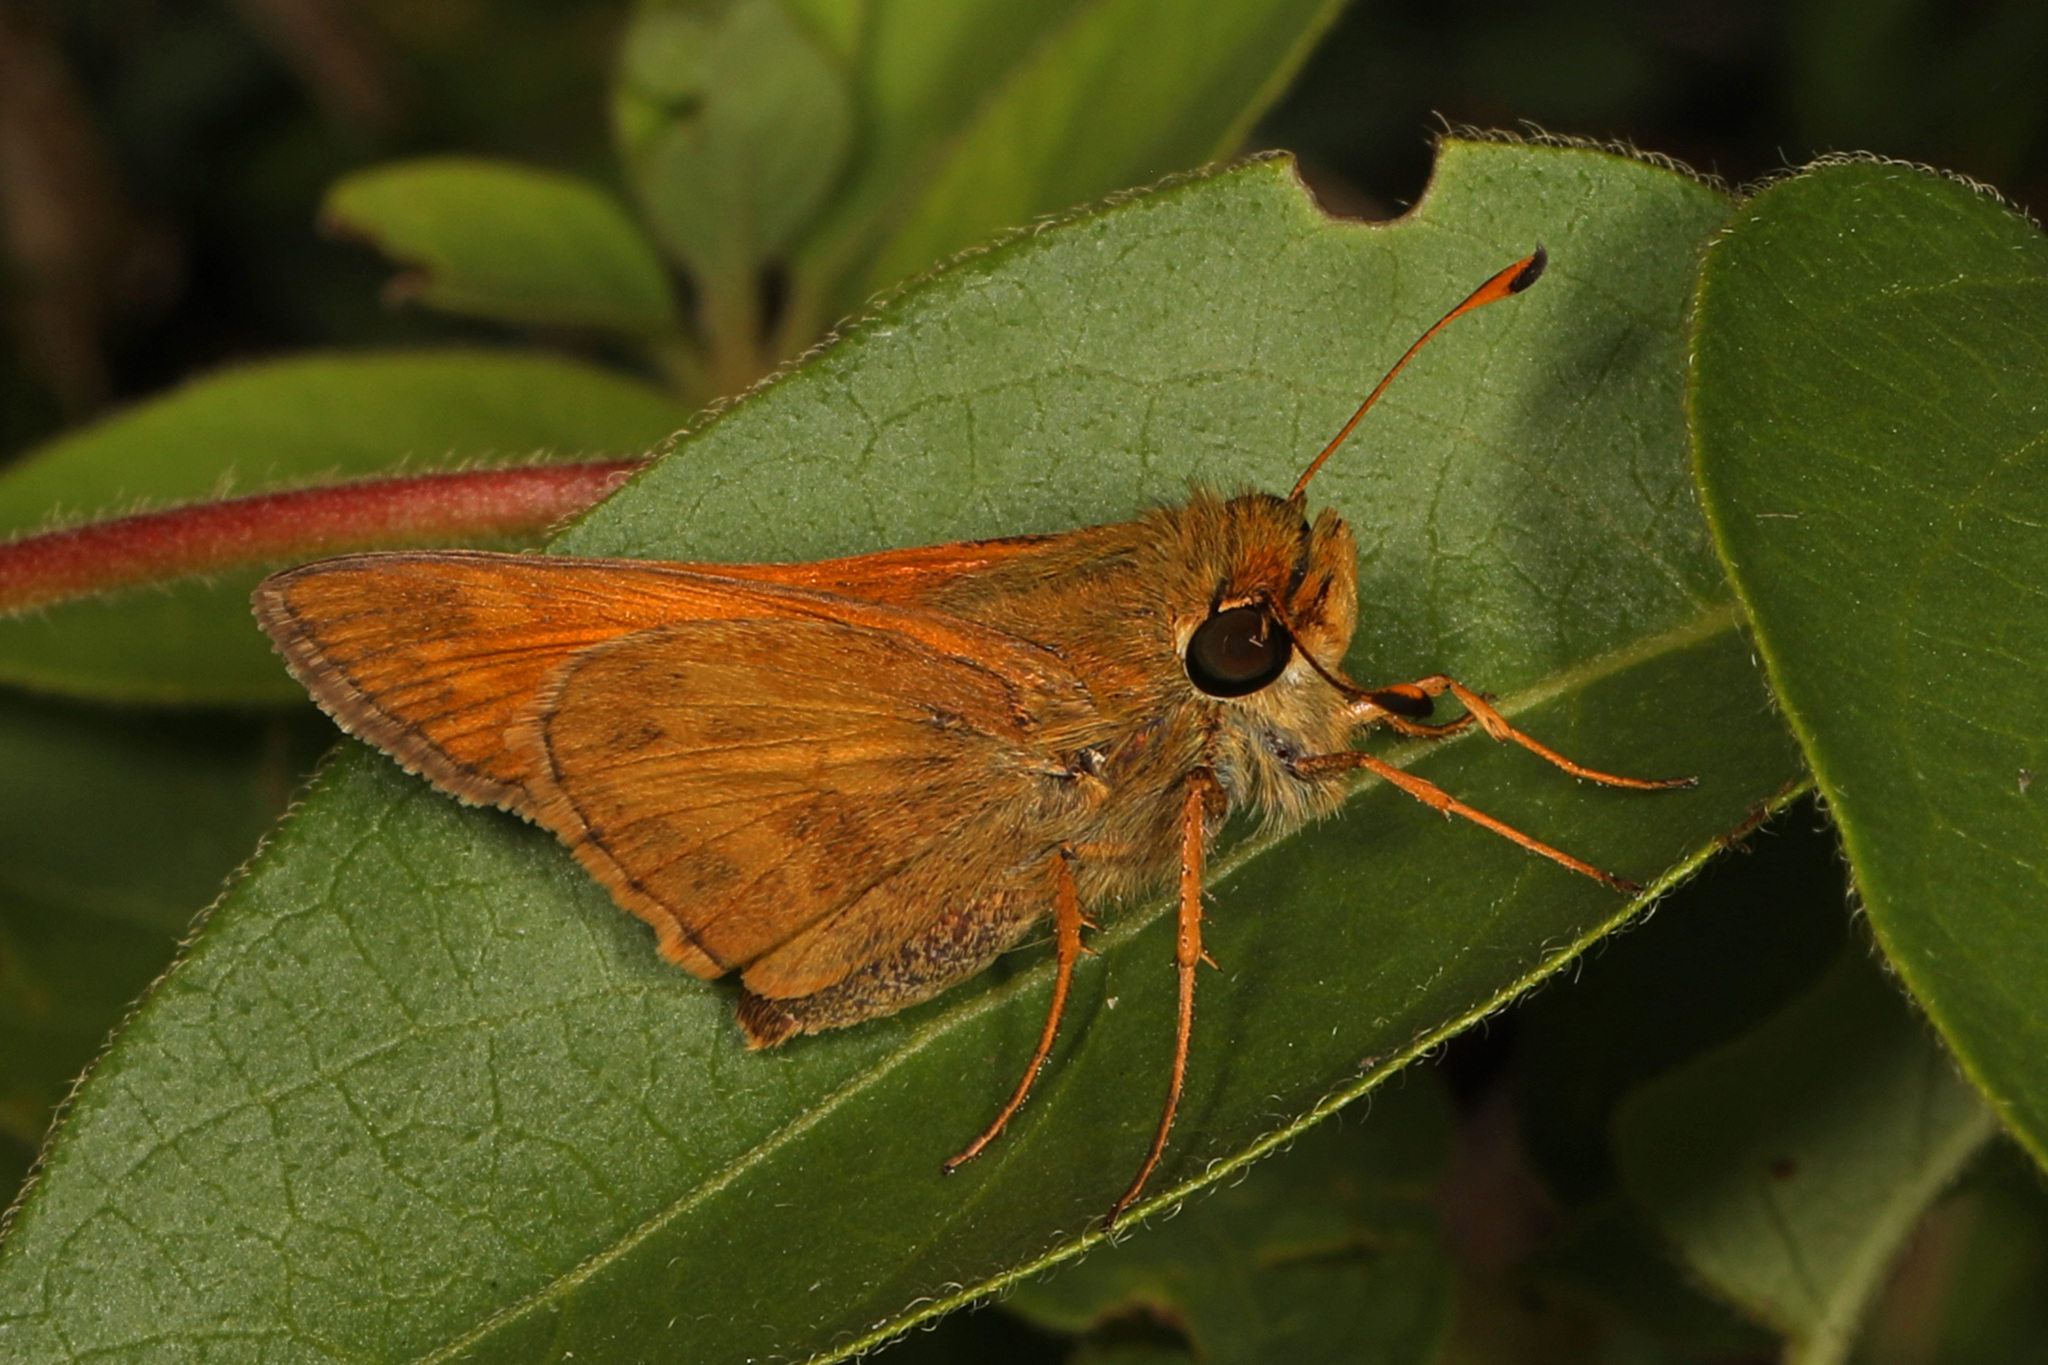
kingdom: Animalia
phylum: Arthropoda
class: Insecta
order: Lepidoptera
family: Hesperiidae
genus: Atalopedes
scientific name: Atalopedes
